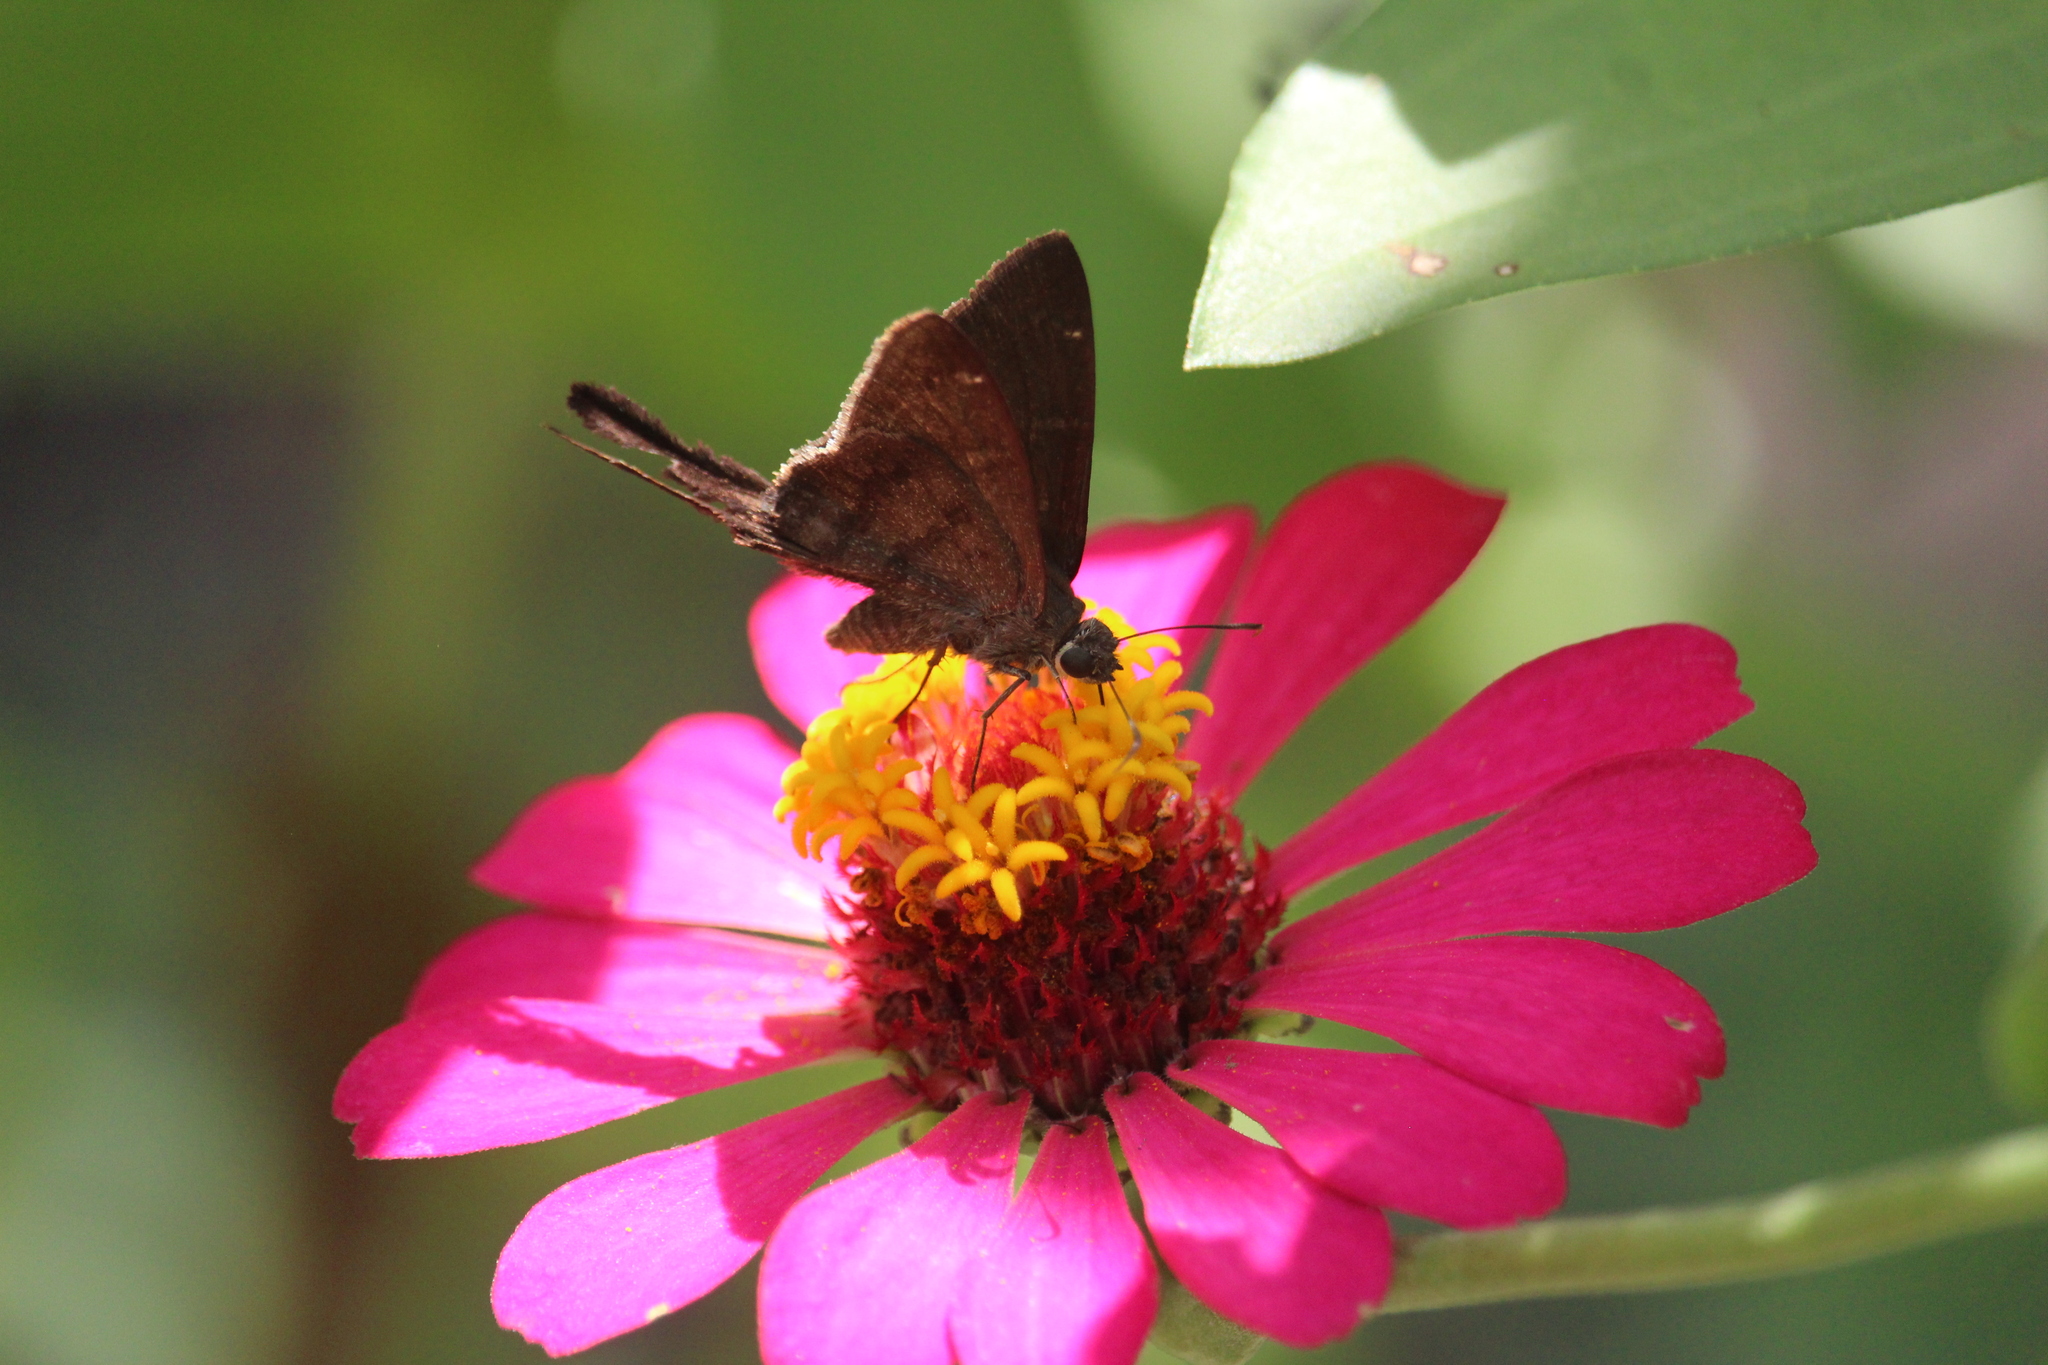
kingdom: Animalia
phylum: Arthropoda
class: Insecta
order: Lepidoptera
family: Hesperiidae
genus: Urbanus
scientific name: Urbanus simplicius
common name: Plain longtail
